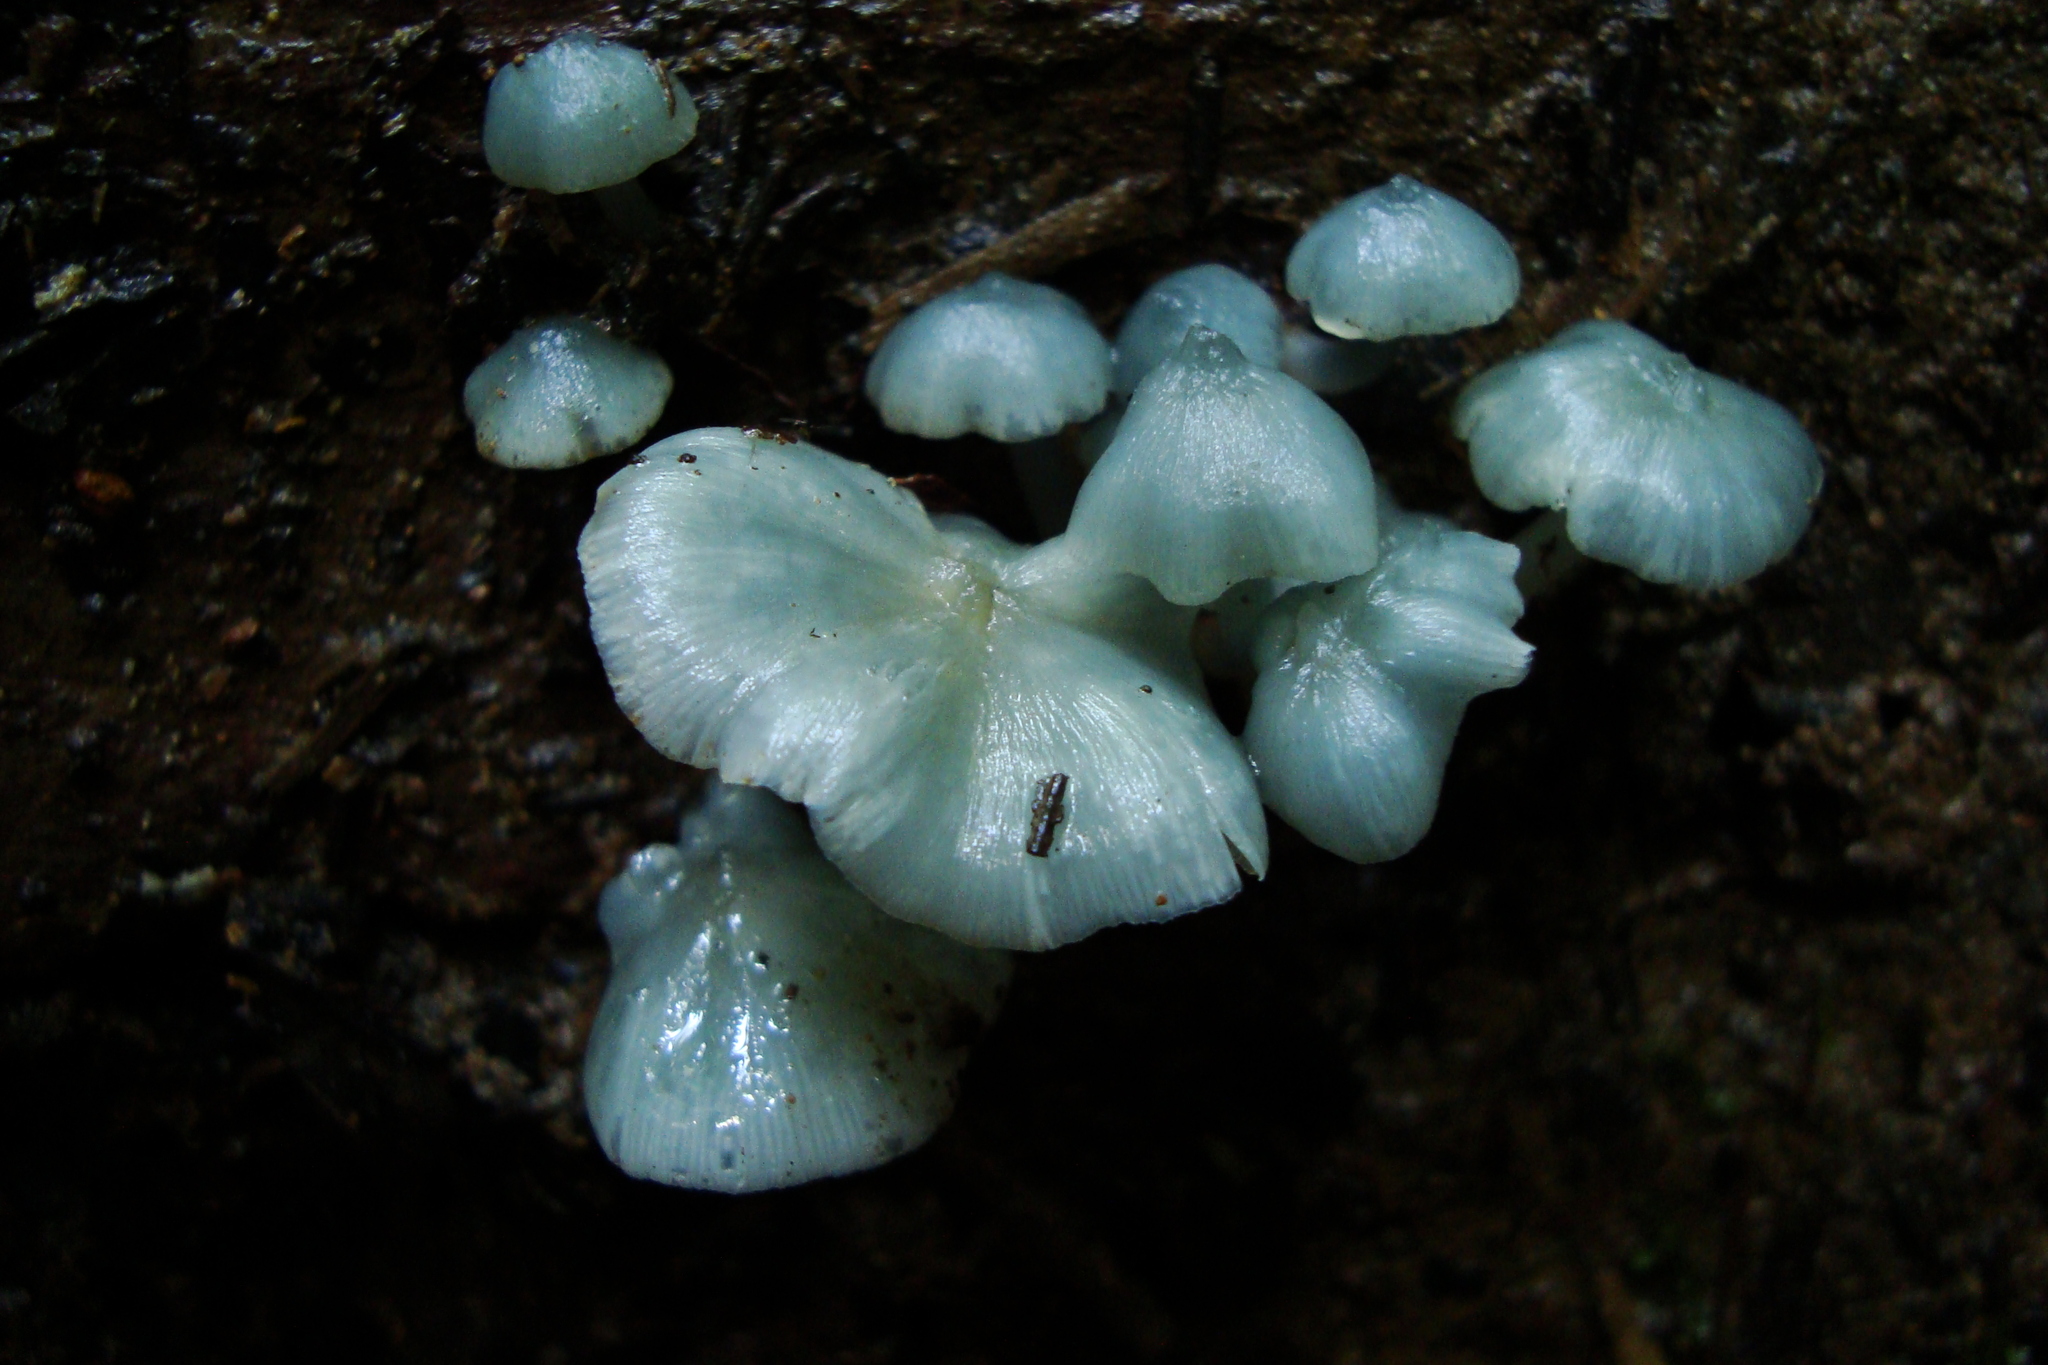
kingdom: Fungi
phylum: Basidiomycota
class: Agaricomycetes
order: Agaricales
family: Marasmiaceae
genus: Clitocybula
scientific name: Clitocybula azurea
